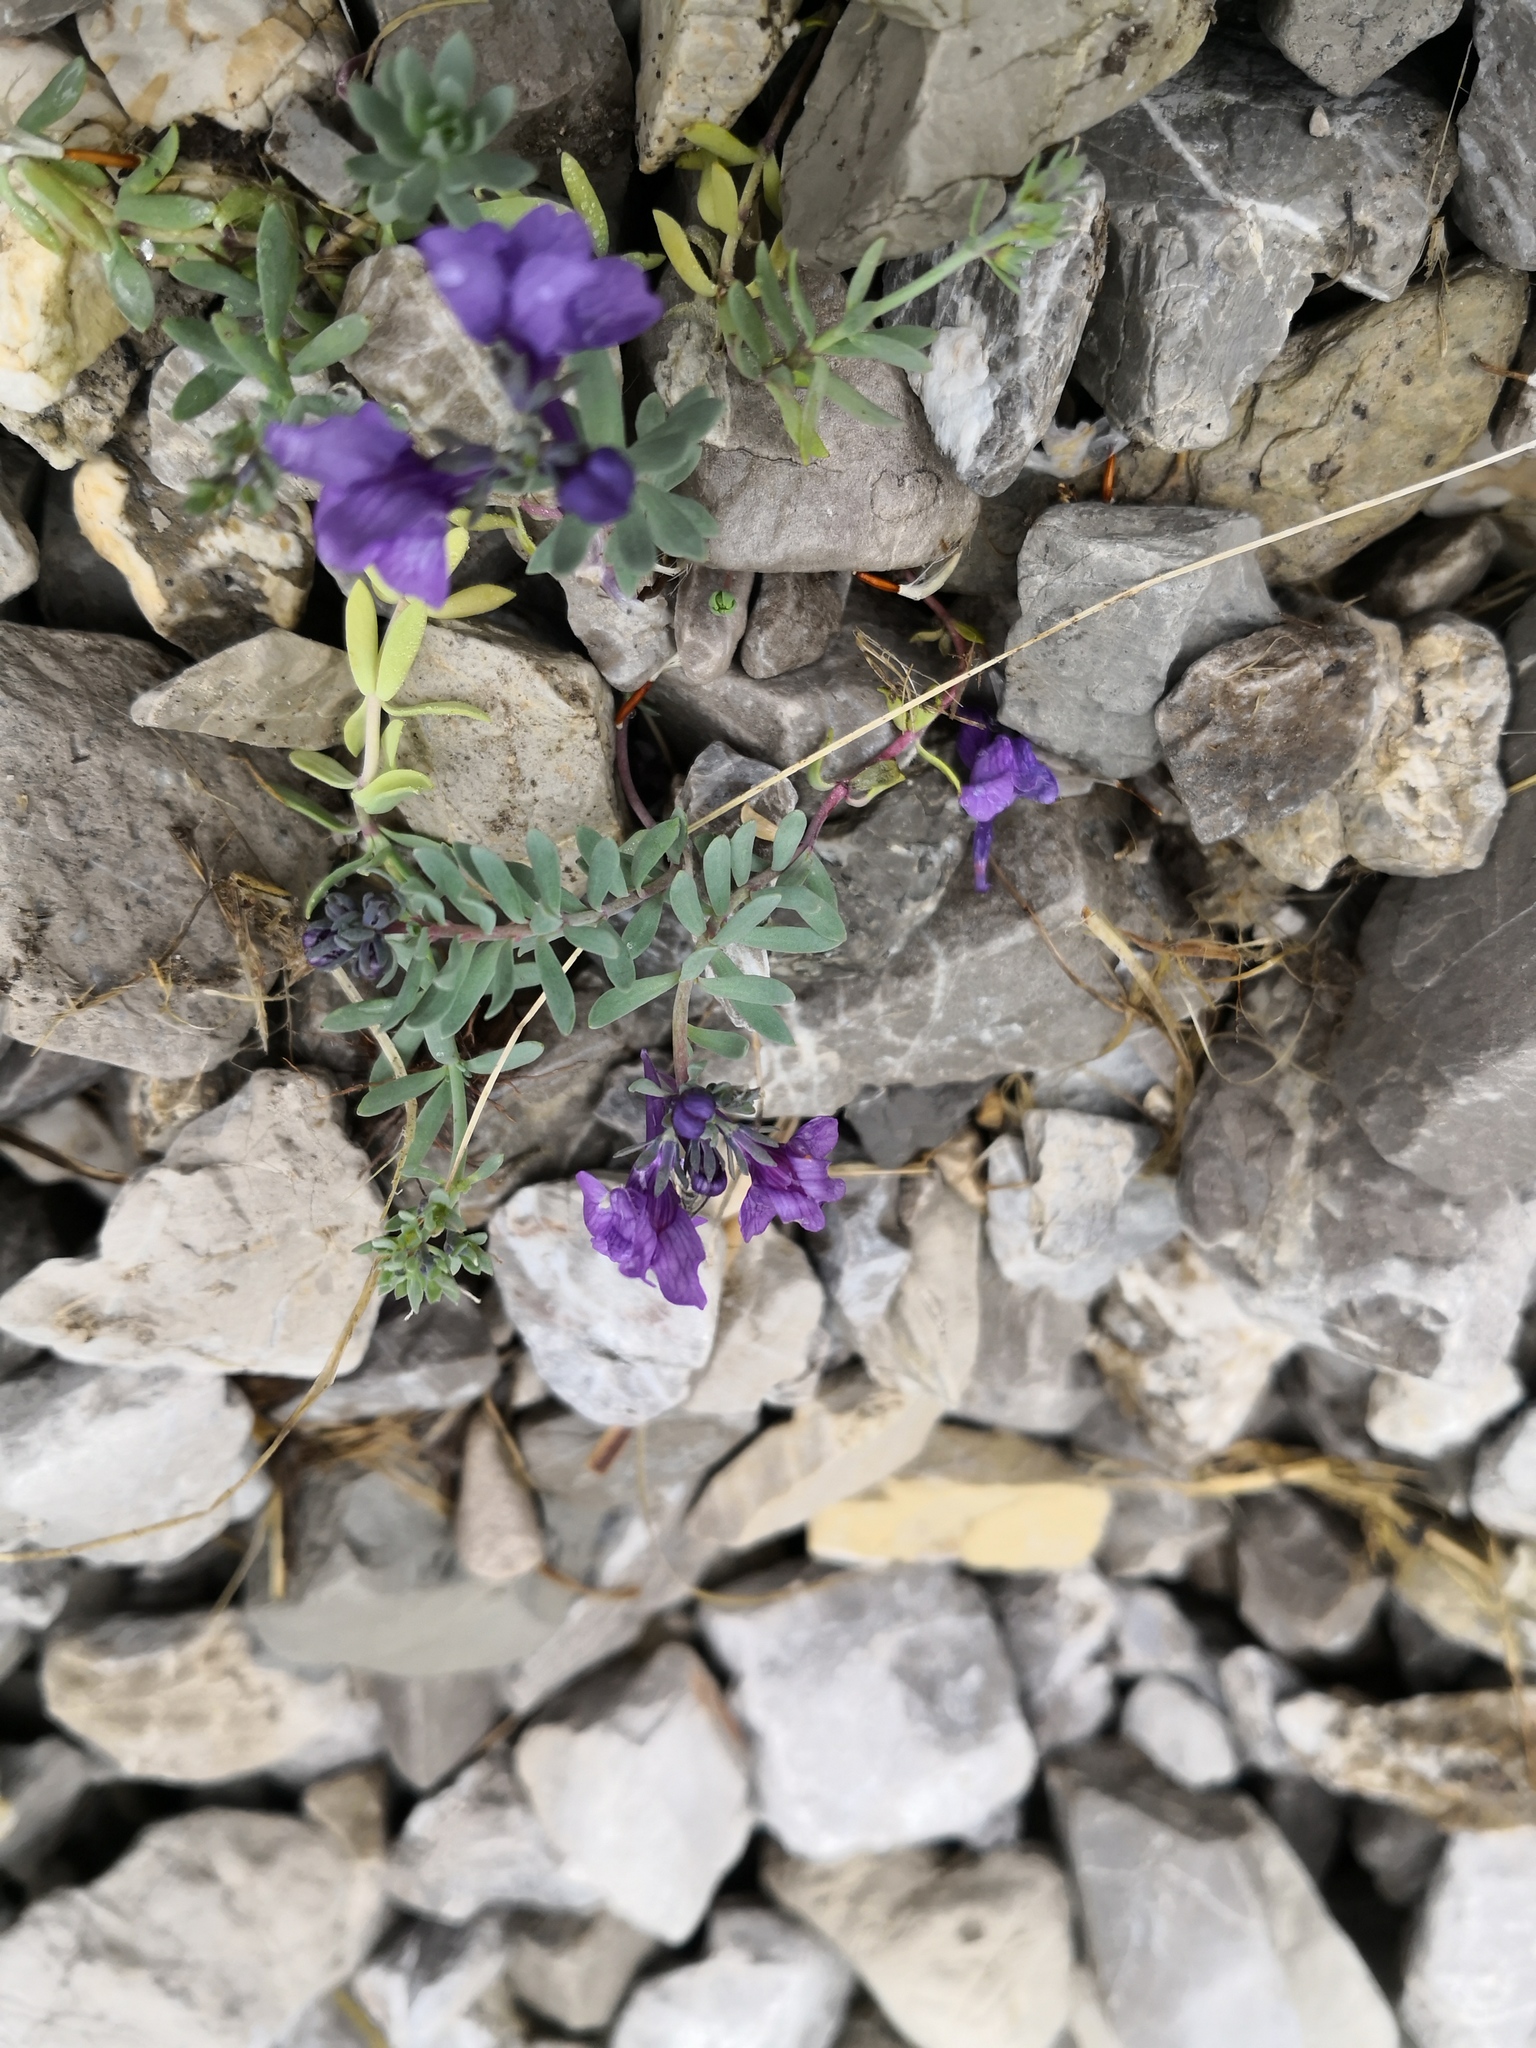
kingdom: Plantae
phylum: Tracheophyta
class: Magnoliopsida
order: Lamiales
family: Plantaginaceae
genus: Linaria
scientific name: Linaria alpina
